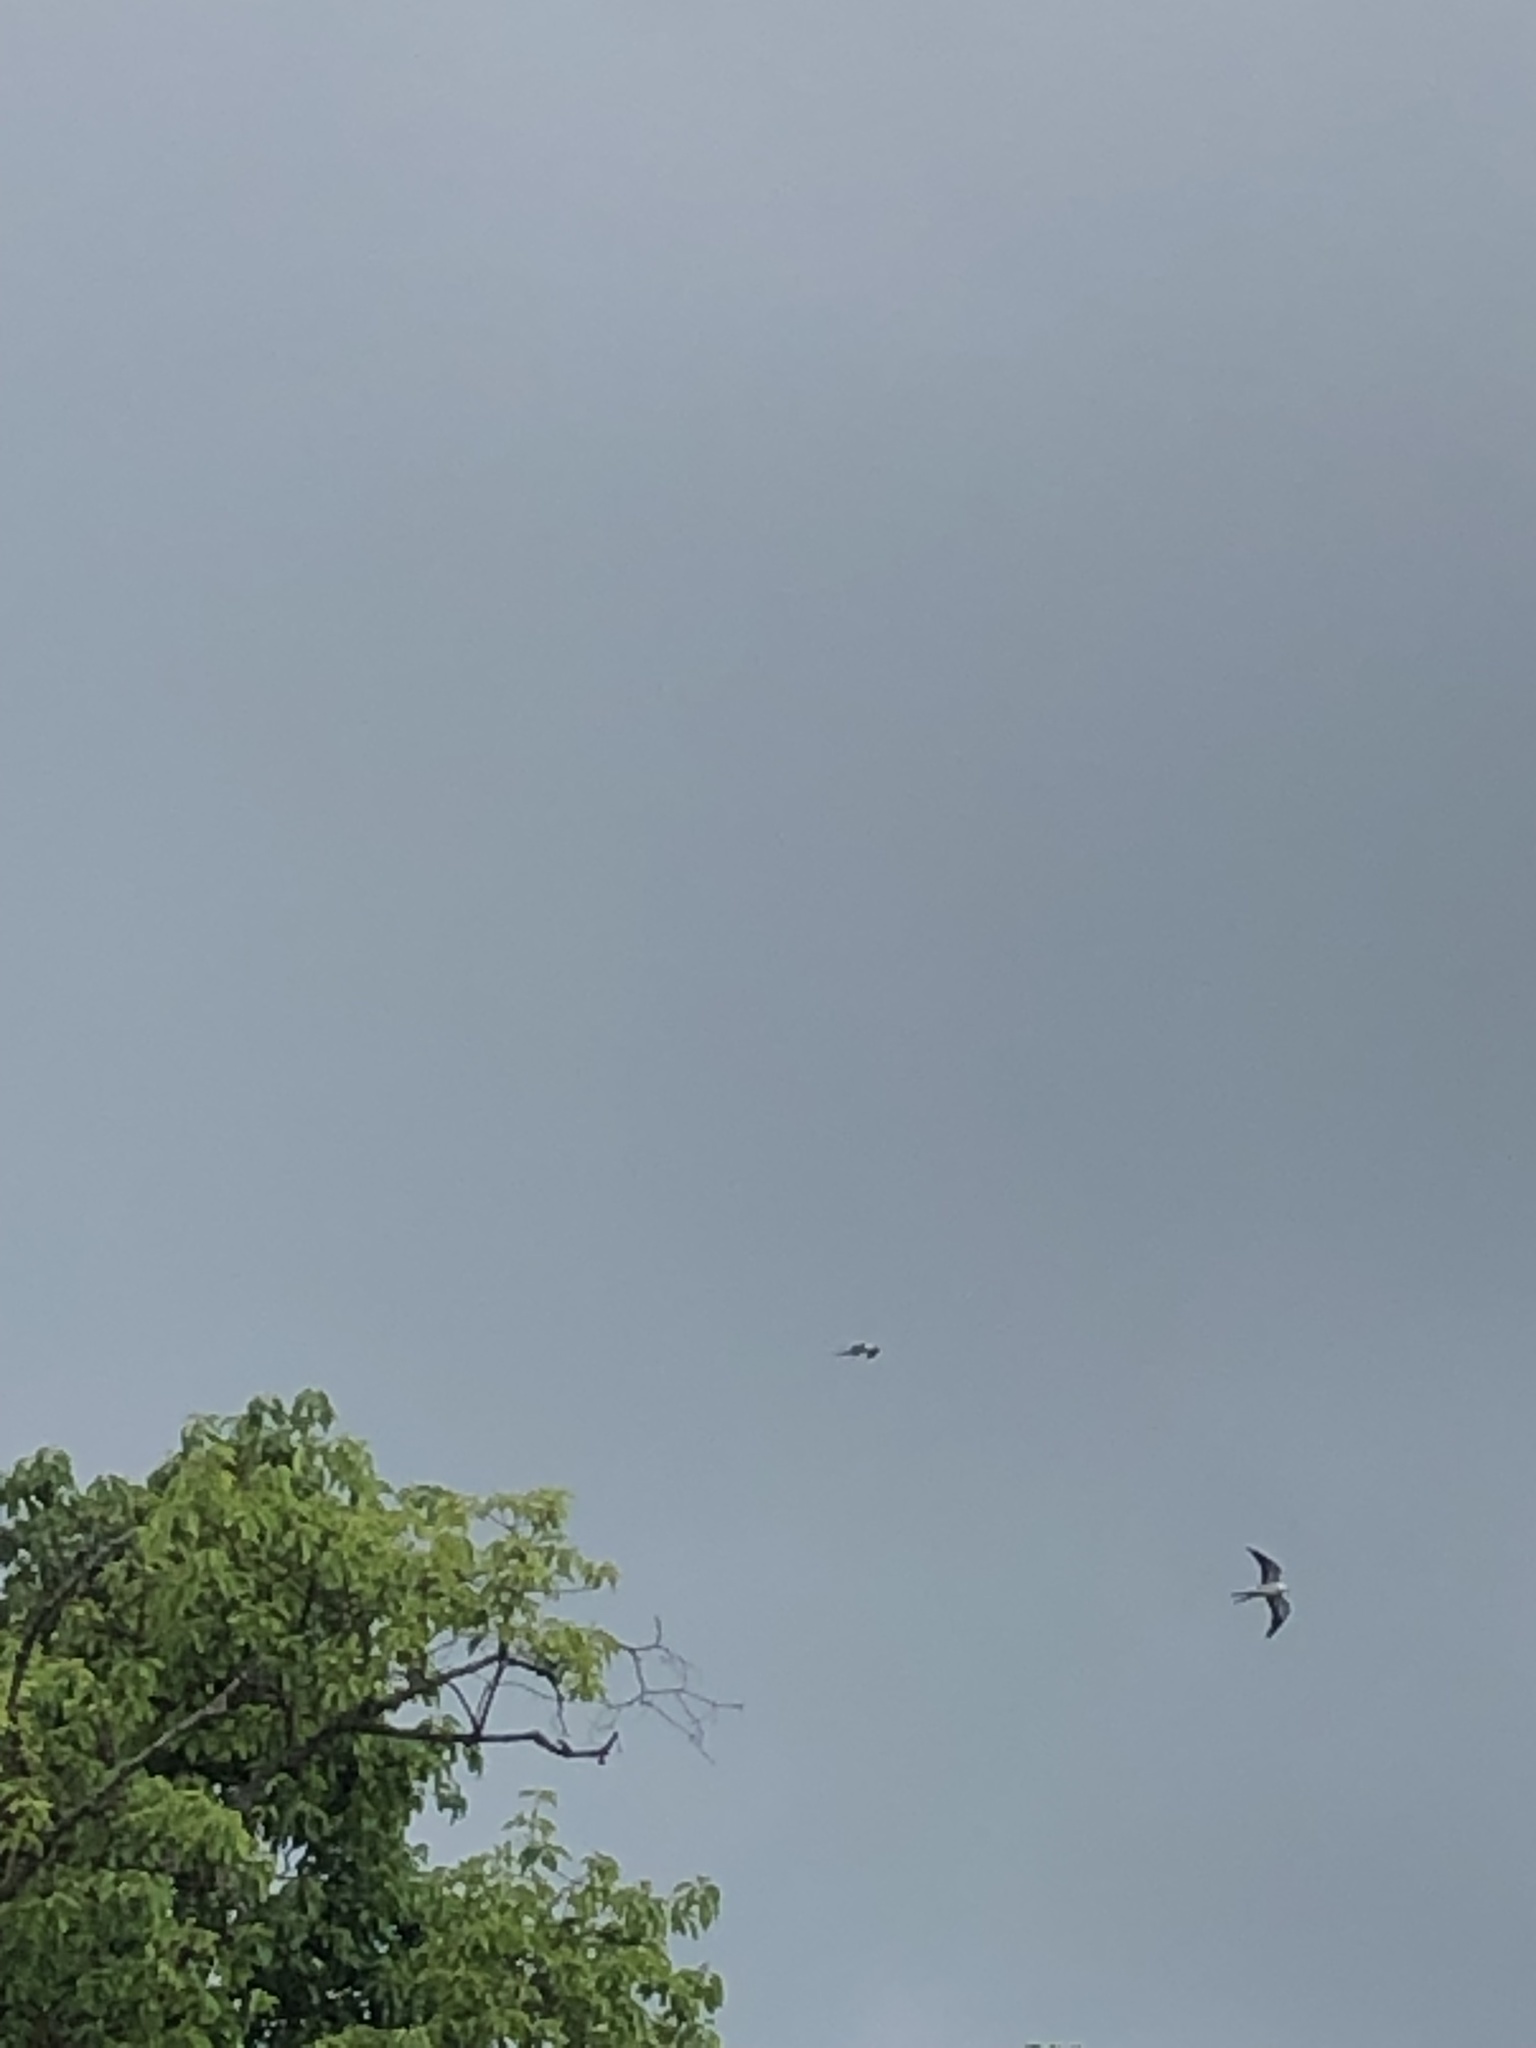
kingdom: Animalia
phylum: Chordata
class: Aves
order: Accipitriformes
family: Accipitridae
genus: Elanoides
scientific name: Elanoides forficatus
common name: Swallow-tailed kite
